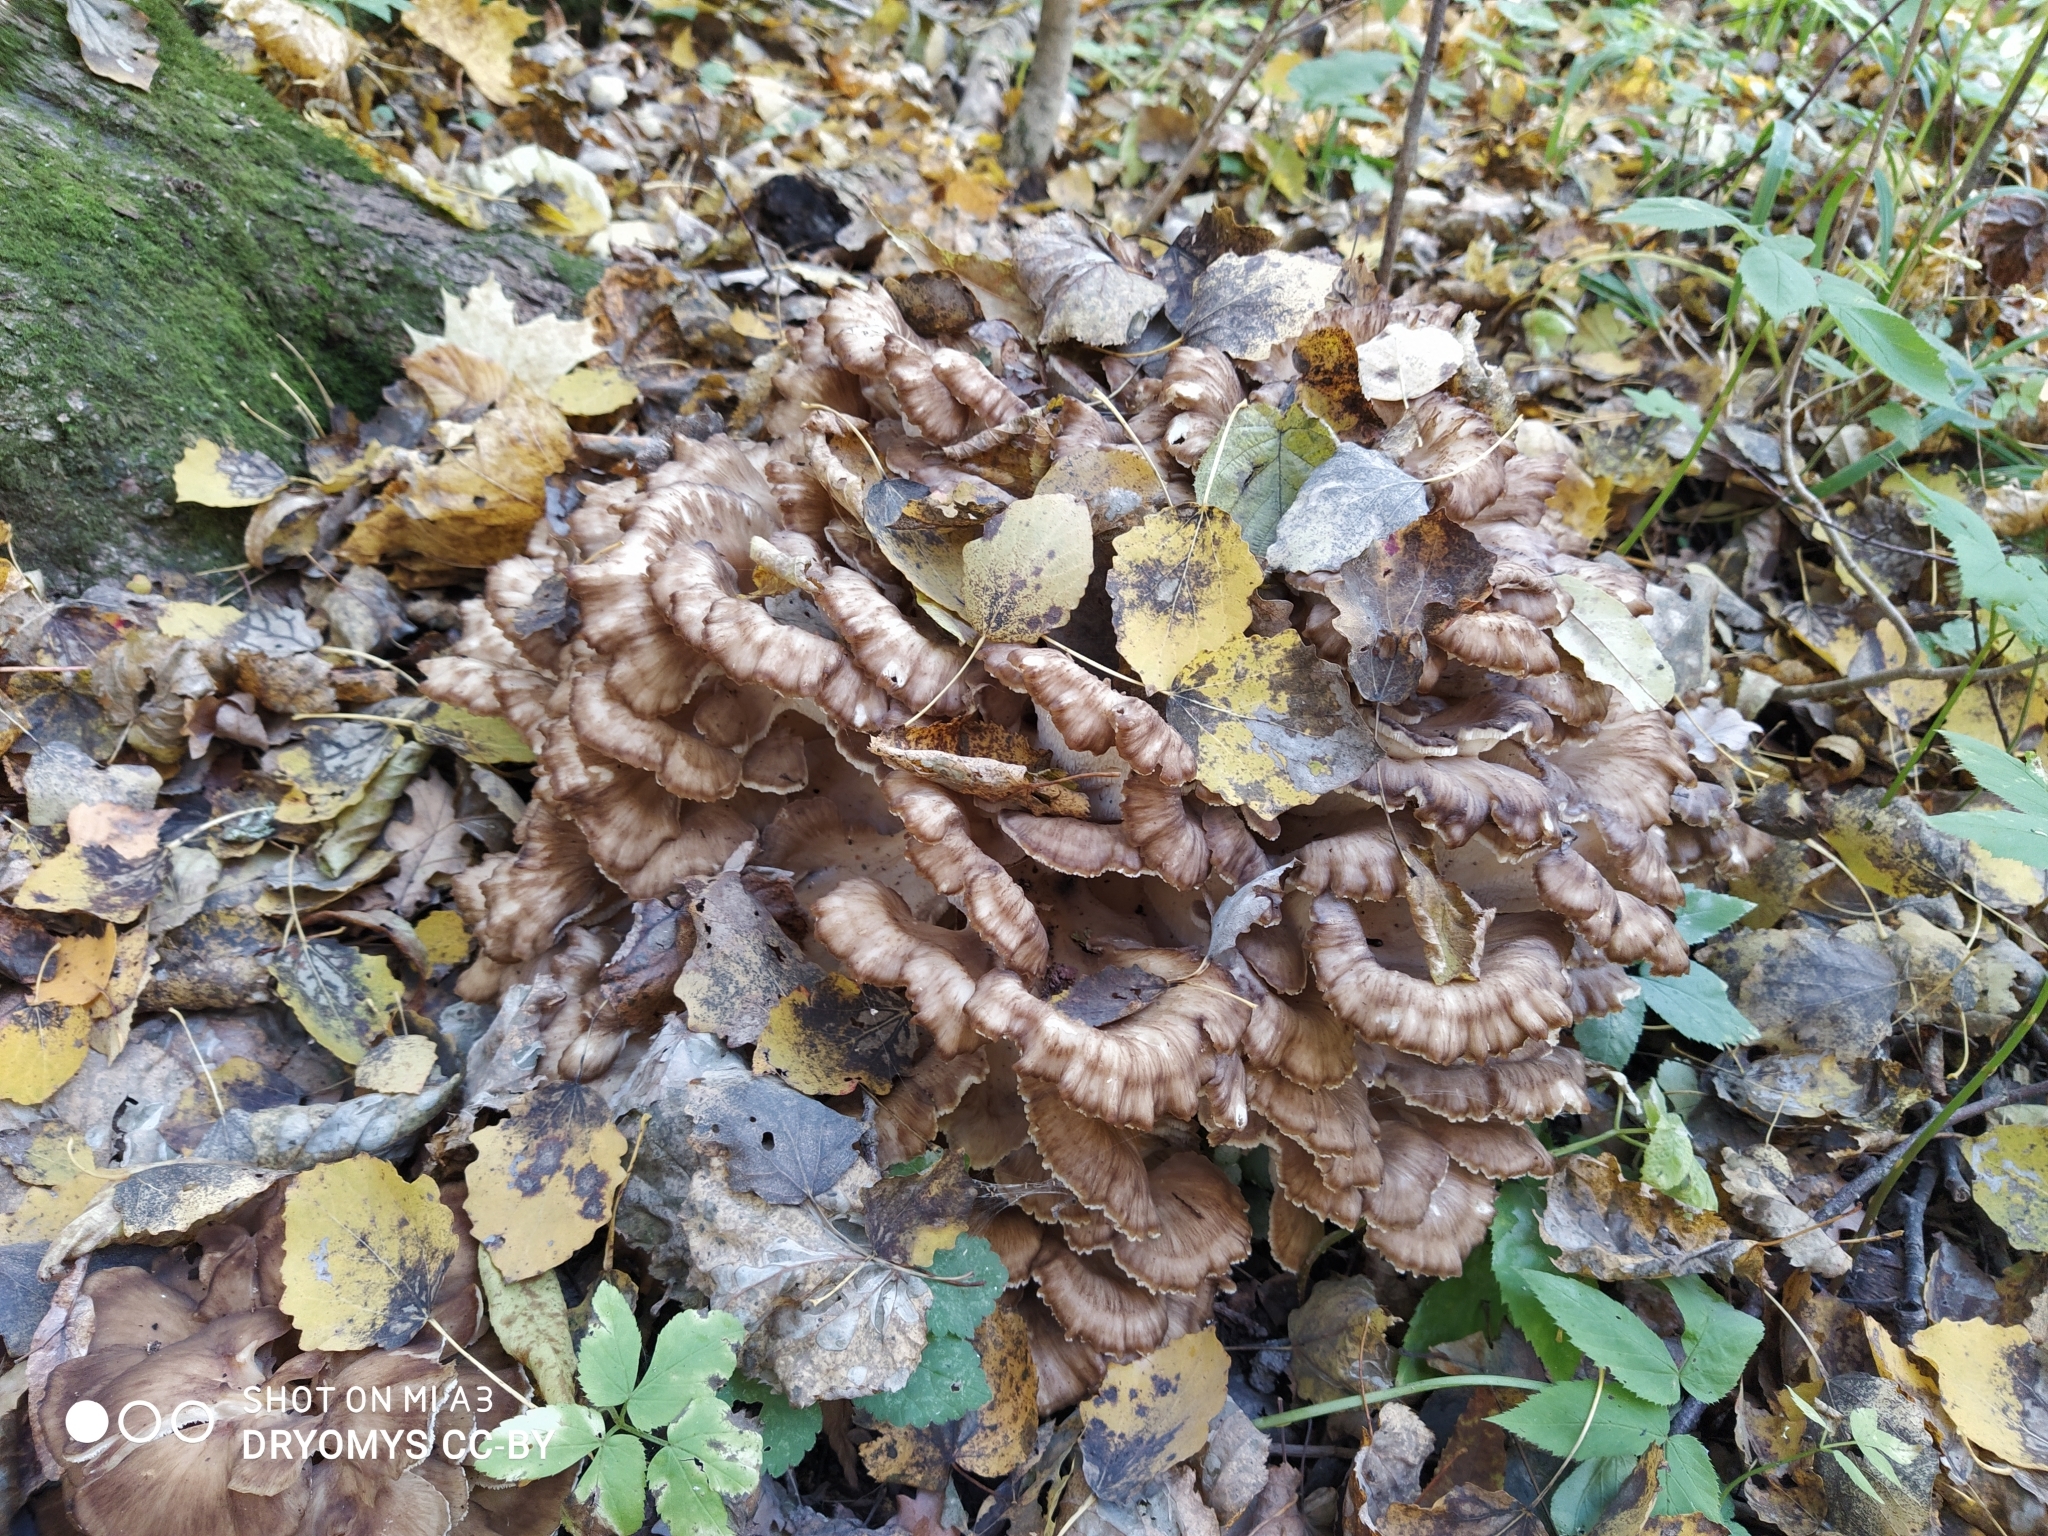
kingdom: Fungi
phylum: Basidiomycota
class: Agaricomycetes
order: Polyporales
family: Grifolaceae
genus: Grifola
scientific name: Grifola frondosa
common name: Hen of the woods
